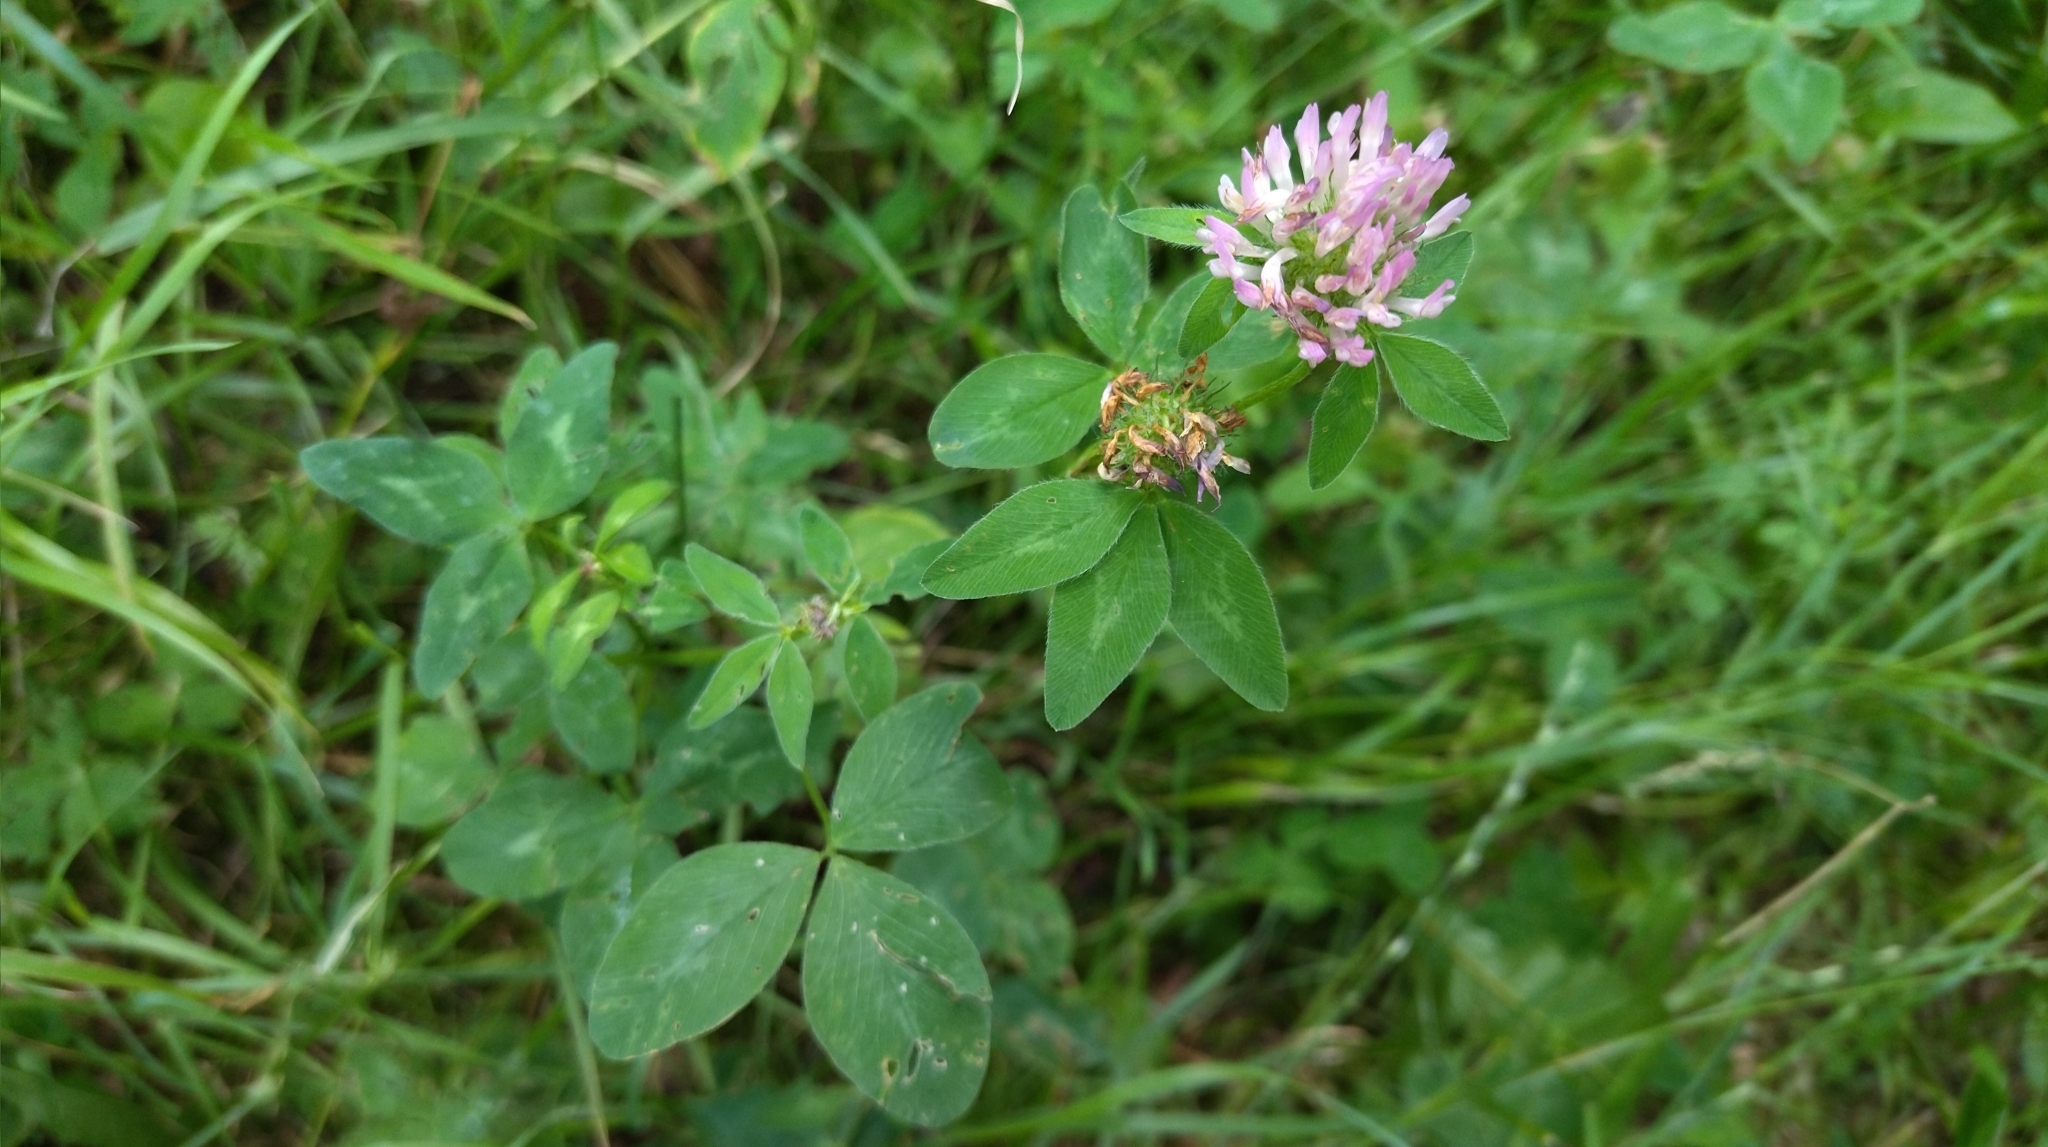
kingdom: Plantae
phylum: Tracheophyta
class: Magnoliopsida
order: Fabales
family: Fabaceae
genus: Trifolium
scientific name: Trifolium pratense
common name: Red clover
